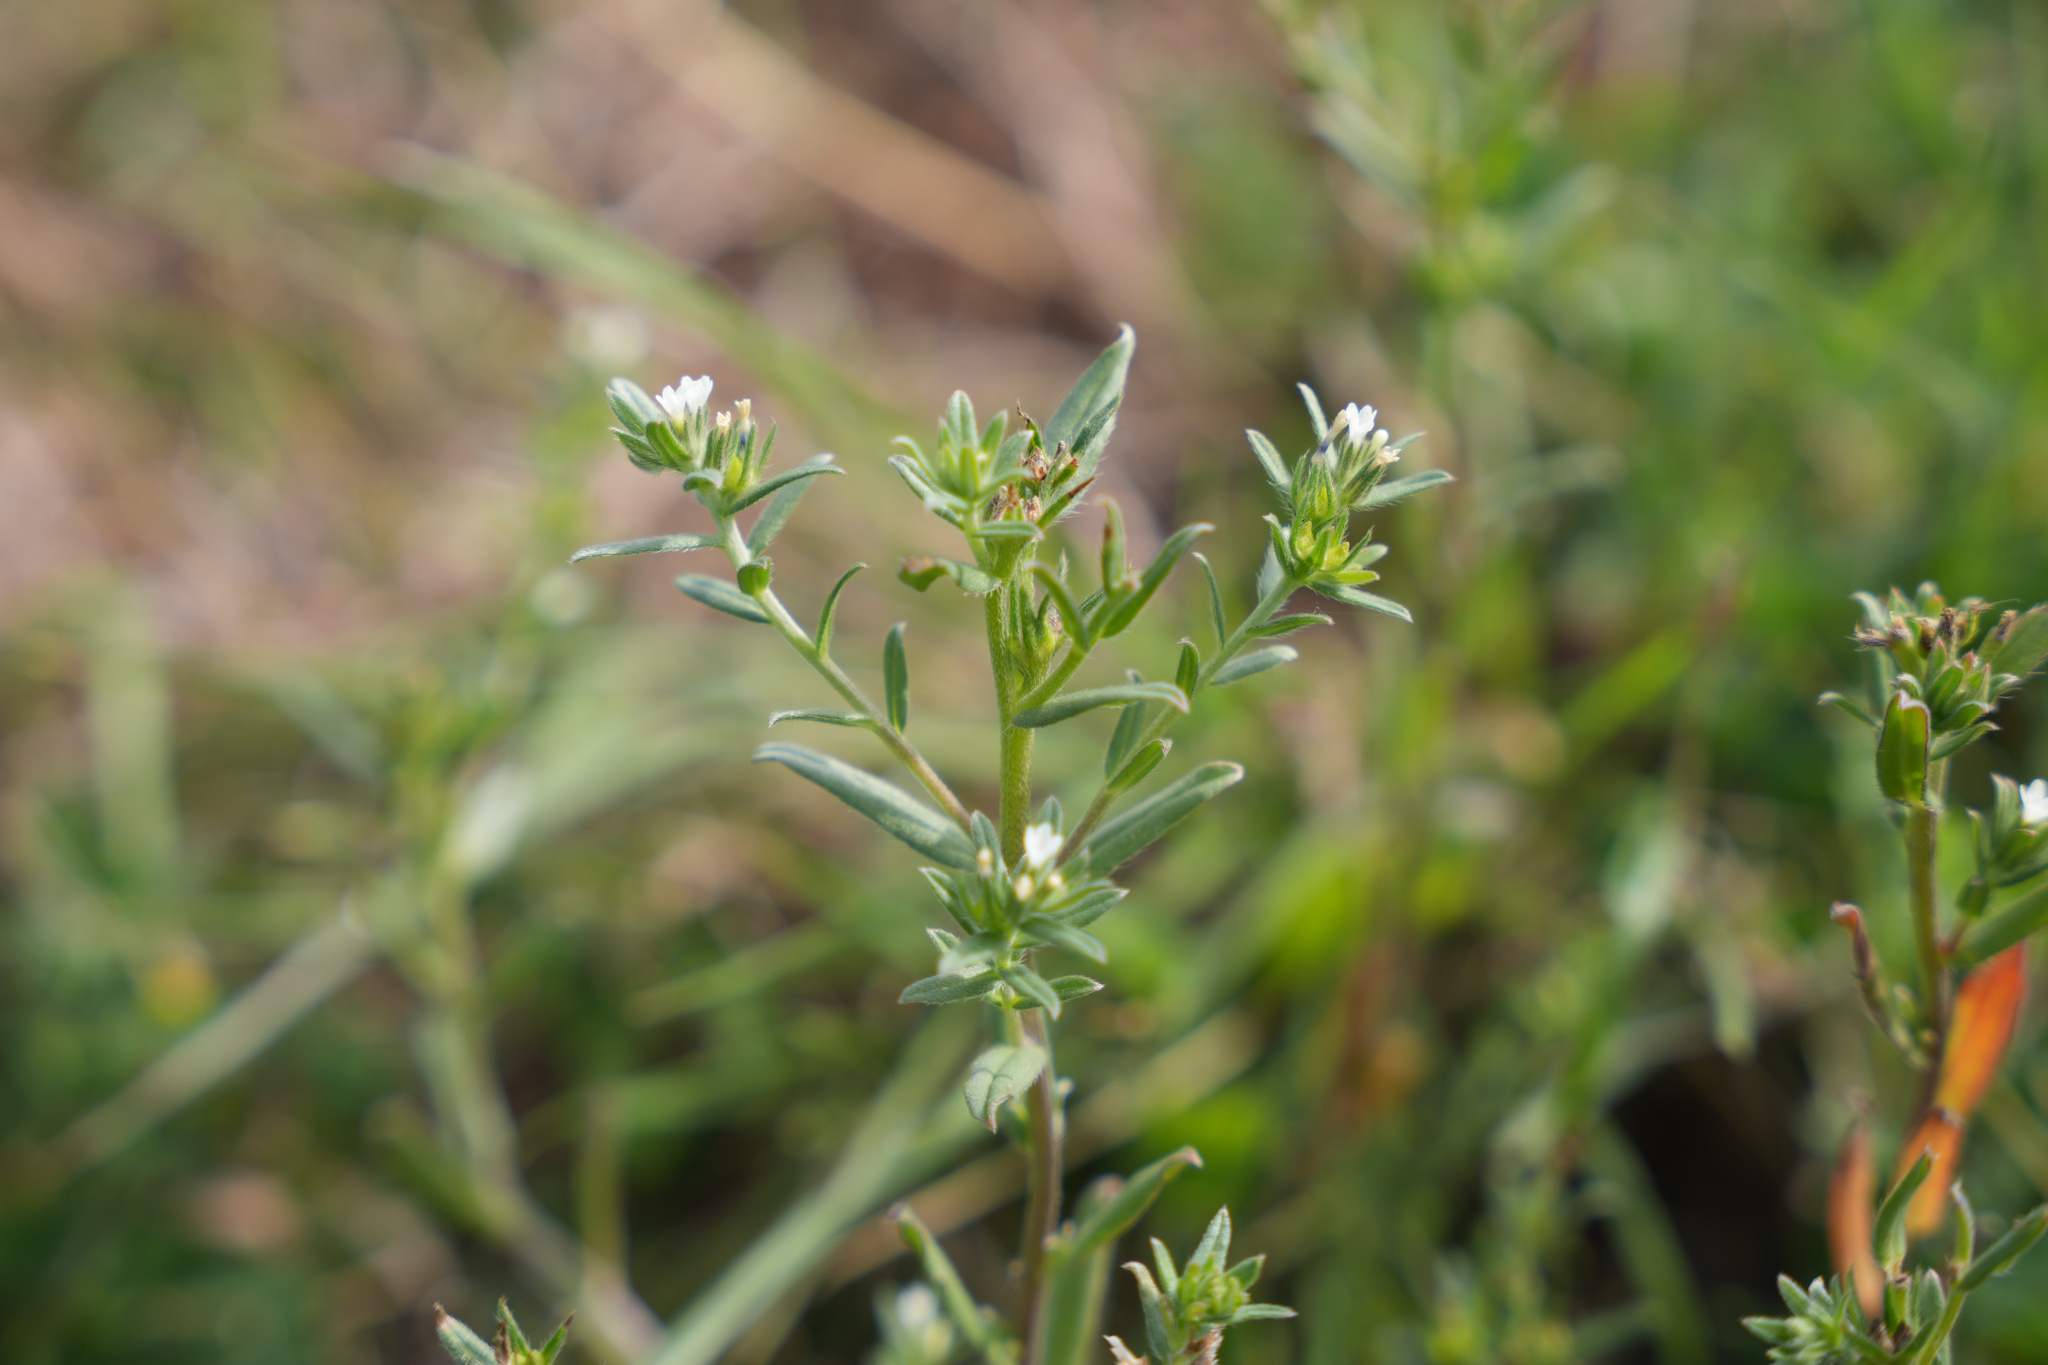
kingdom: Plantae
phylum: Tracheophyta
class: Magnoliopsida
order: Boraginales
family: Boraginaceae
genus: Buglossoides
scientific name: Buglossoides arvensis
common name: Corn gromwell
